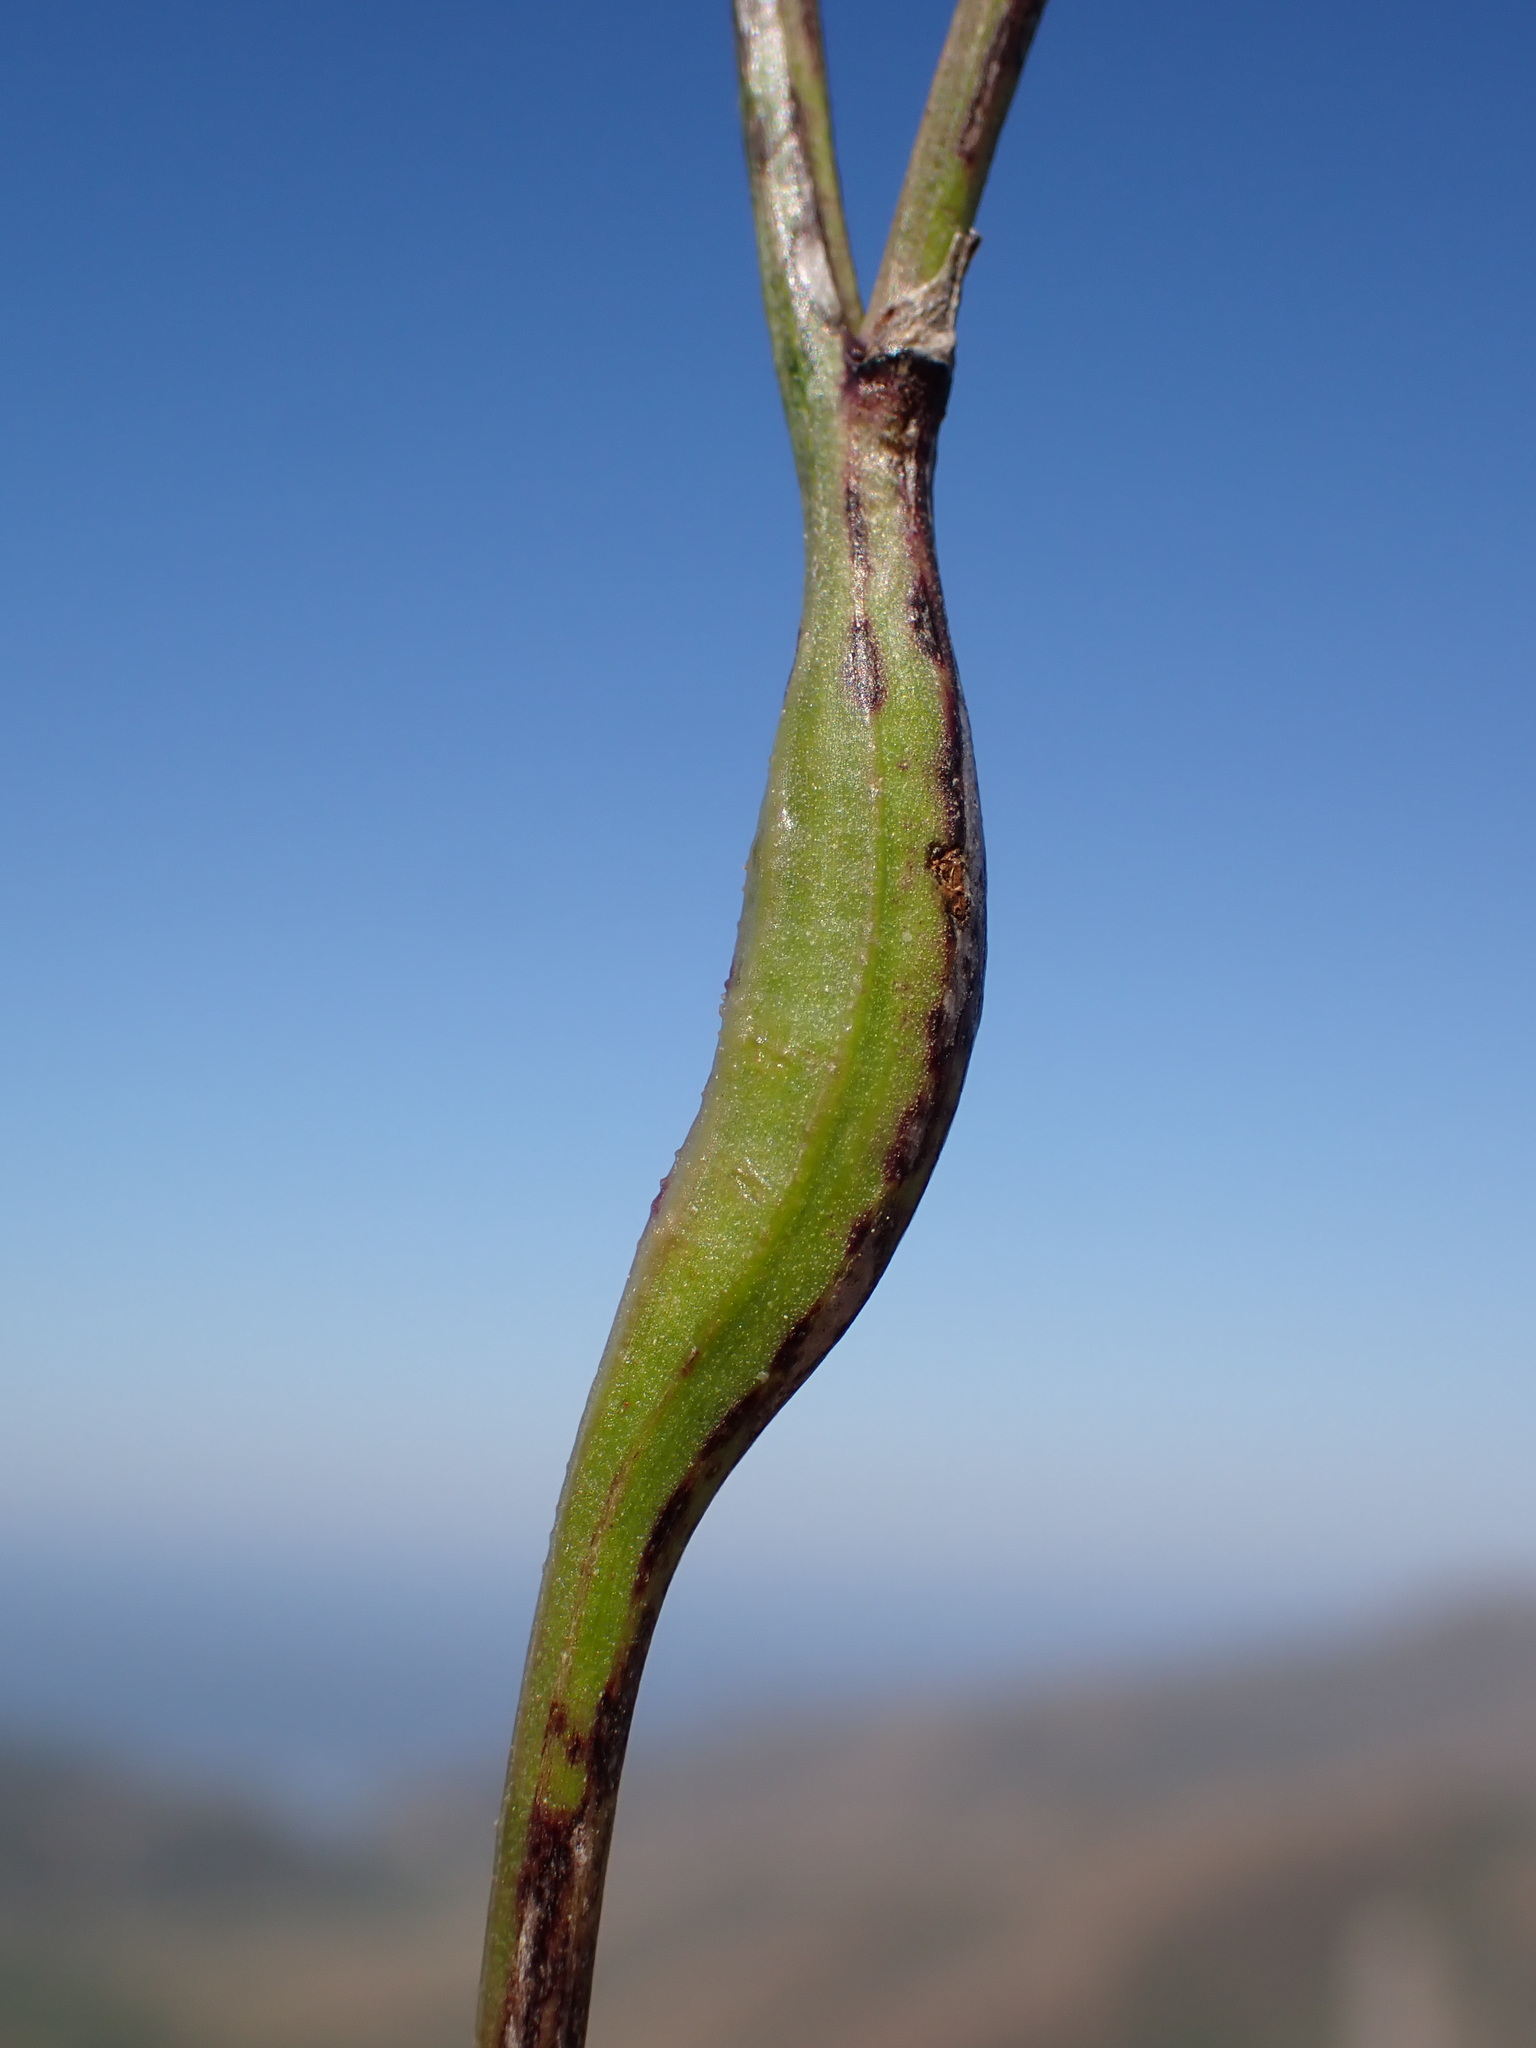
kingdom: Animalia
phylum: Arthropoda
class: Insecta
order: Hymenoptera
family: Cynipidae
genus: Phanacis
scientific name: Phanacis hypochoeridis
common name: Gall wasp
